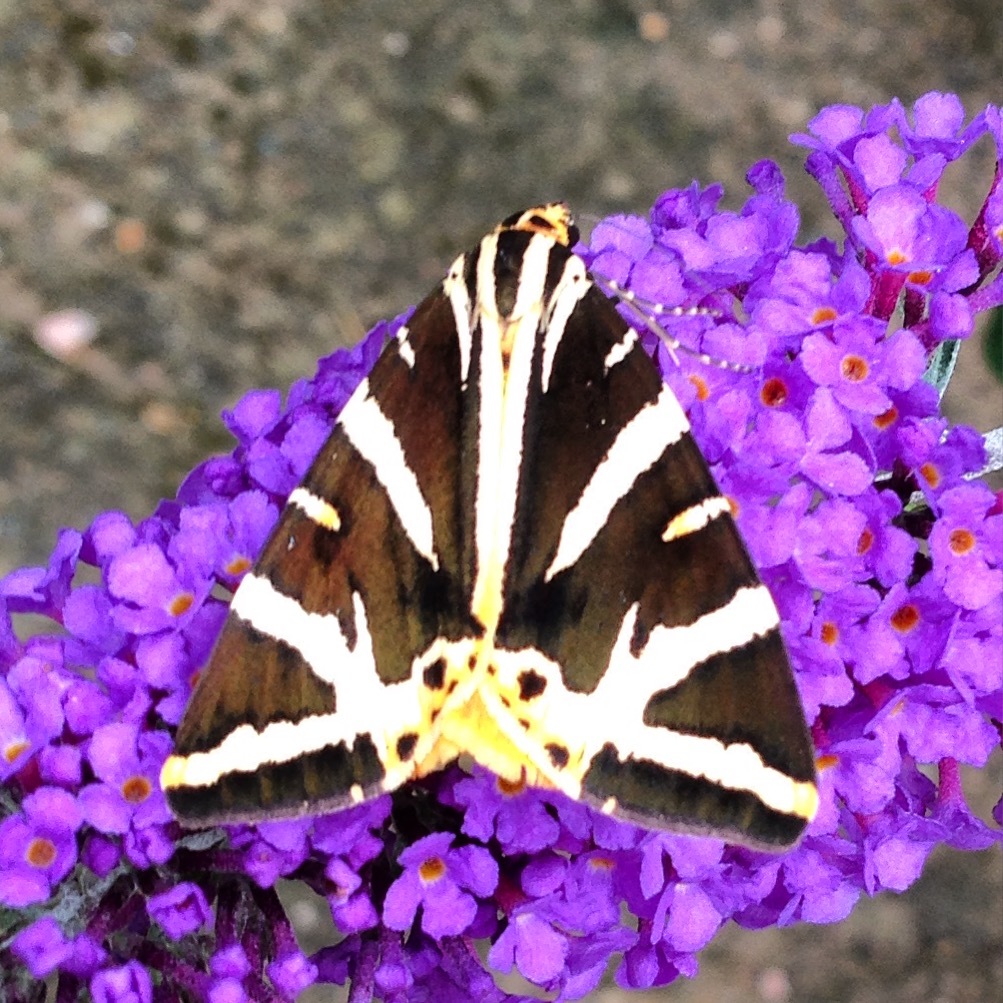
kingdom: Animalia
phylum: Arthropoda
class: Insecta
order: Lepidoptera
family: Erebidae
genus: Euplagia
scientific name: Euplagia quadripunctaria
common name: Jersey tiger
